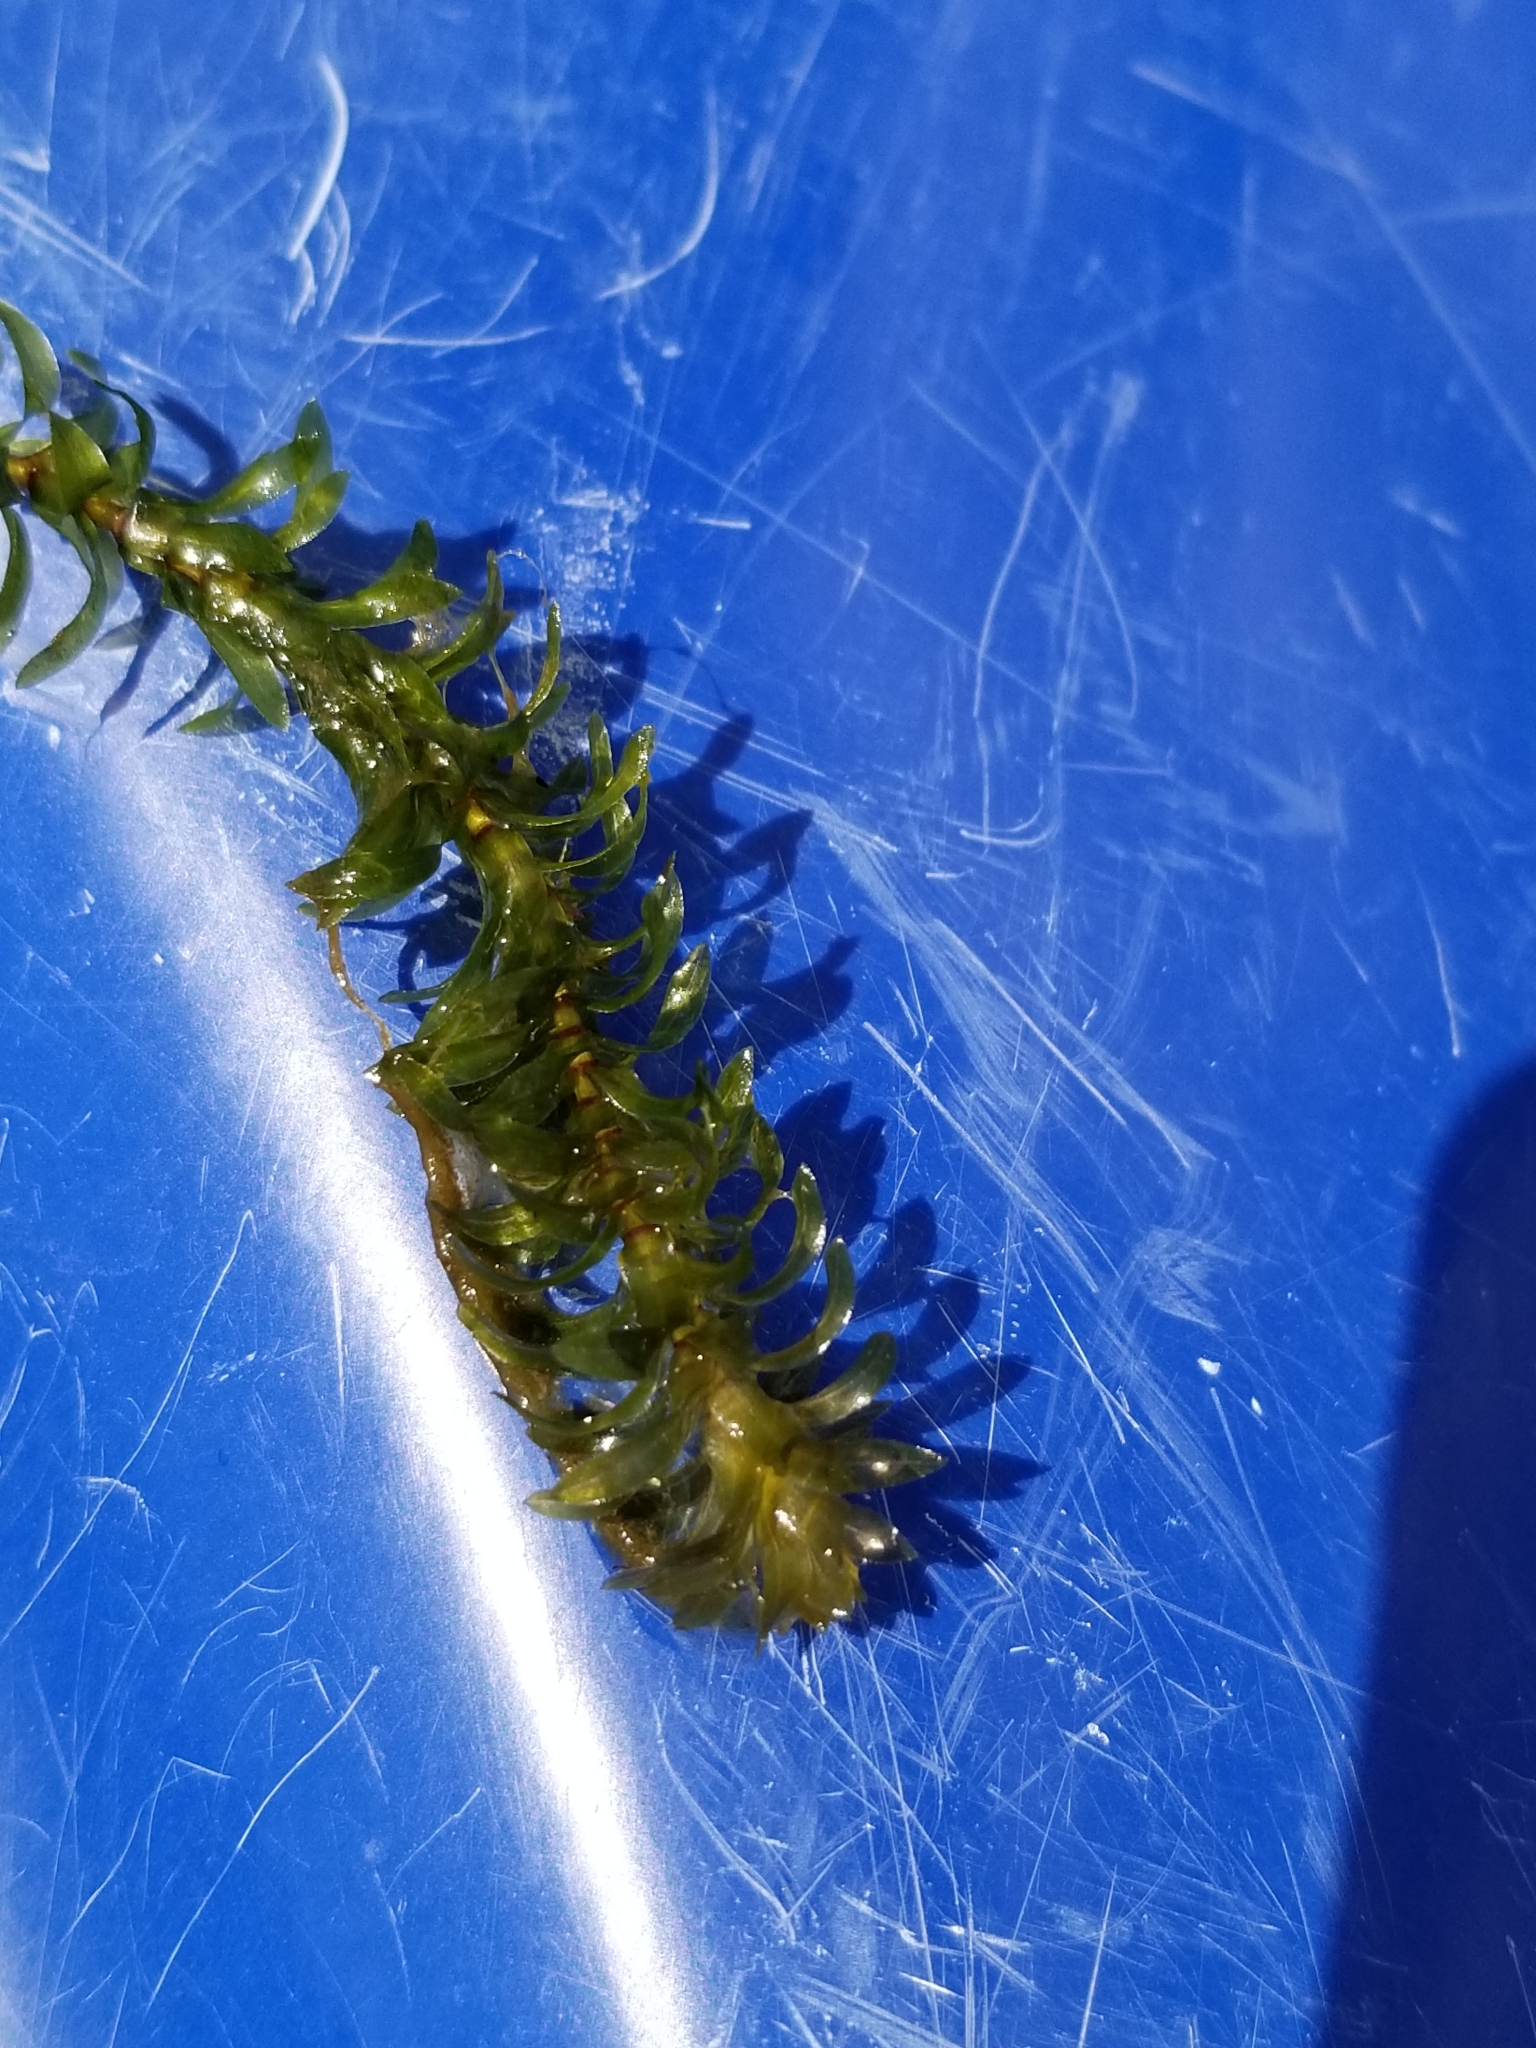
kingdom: Plantae
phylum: Tracheophyta
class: Liliopsida
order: Alismatales
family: Hydrocharitaceae
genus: Elodea
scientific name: Elodea canadensis
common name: Canadian waterweed
